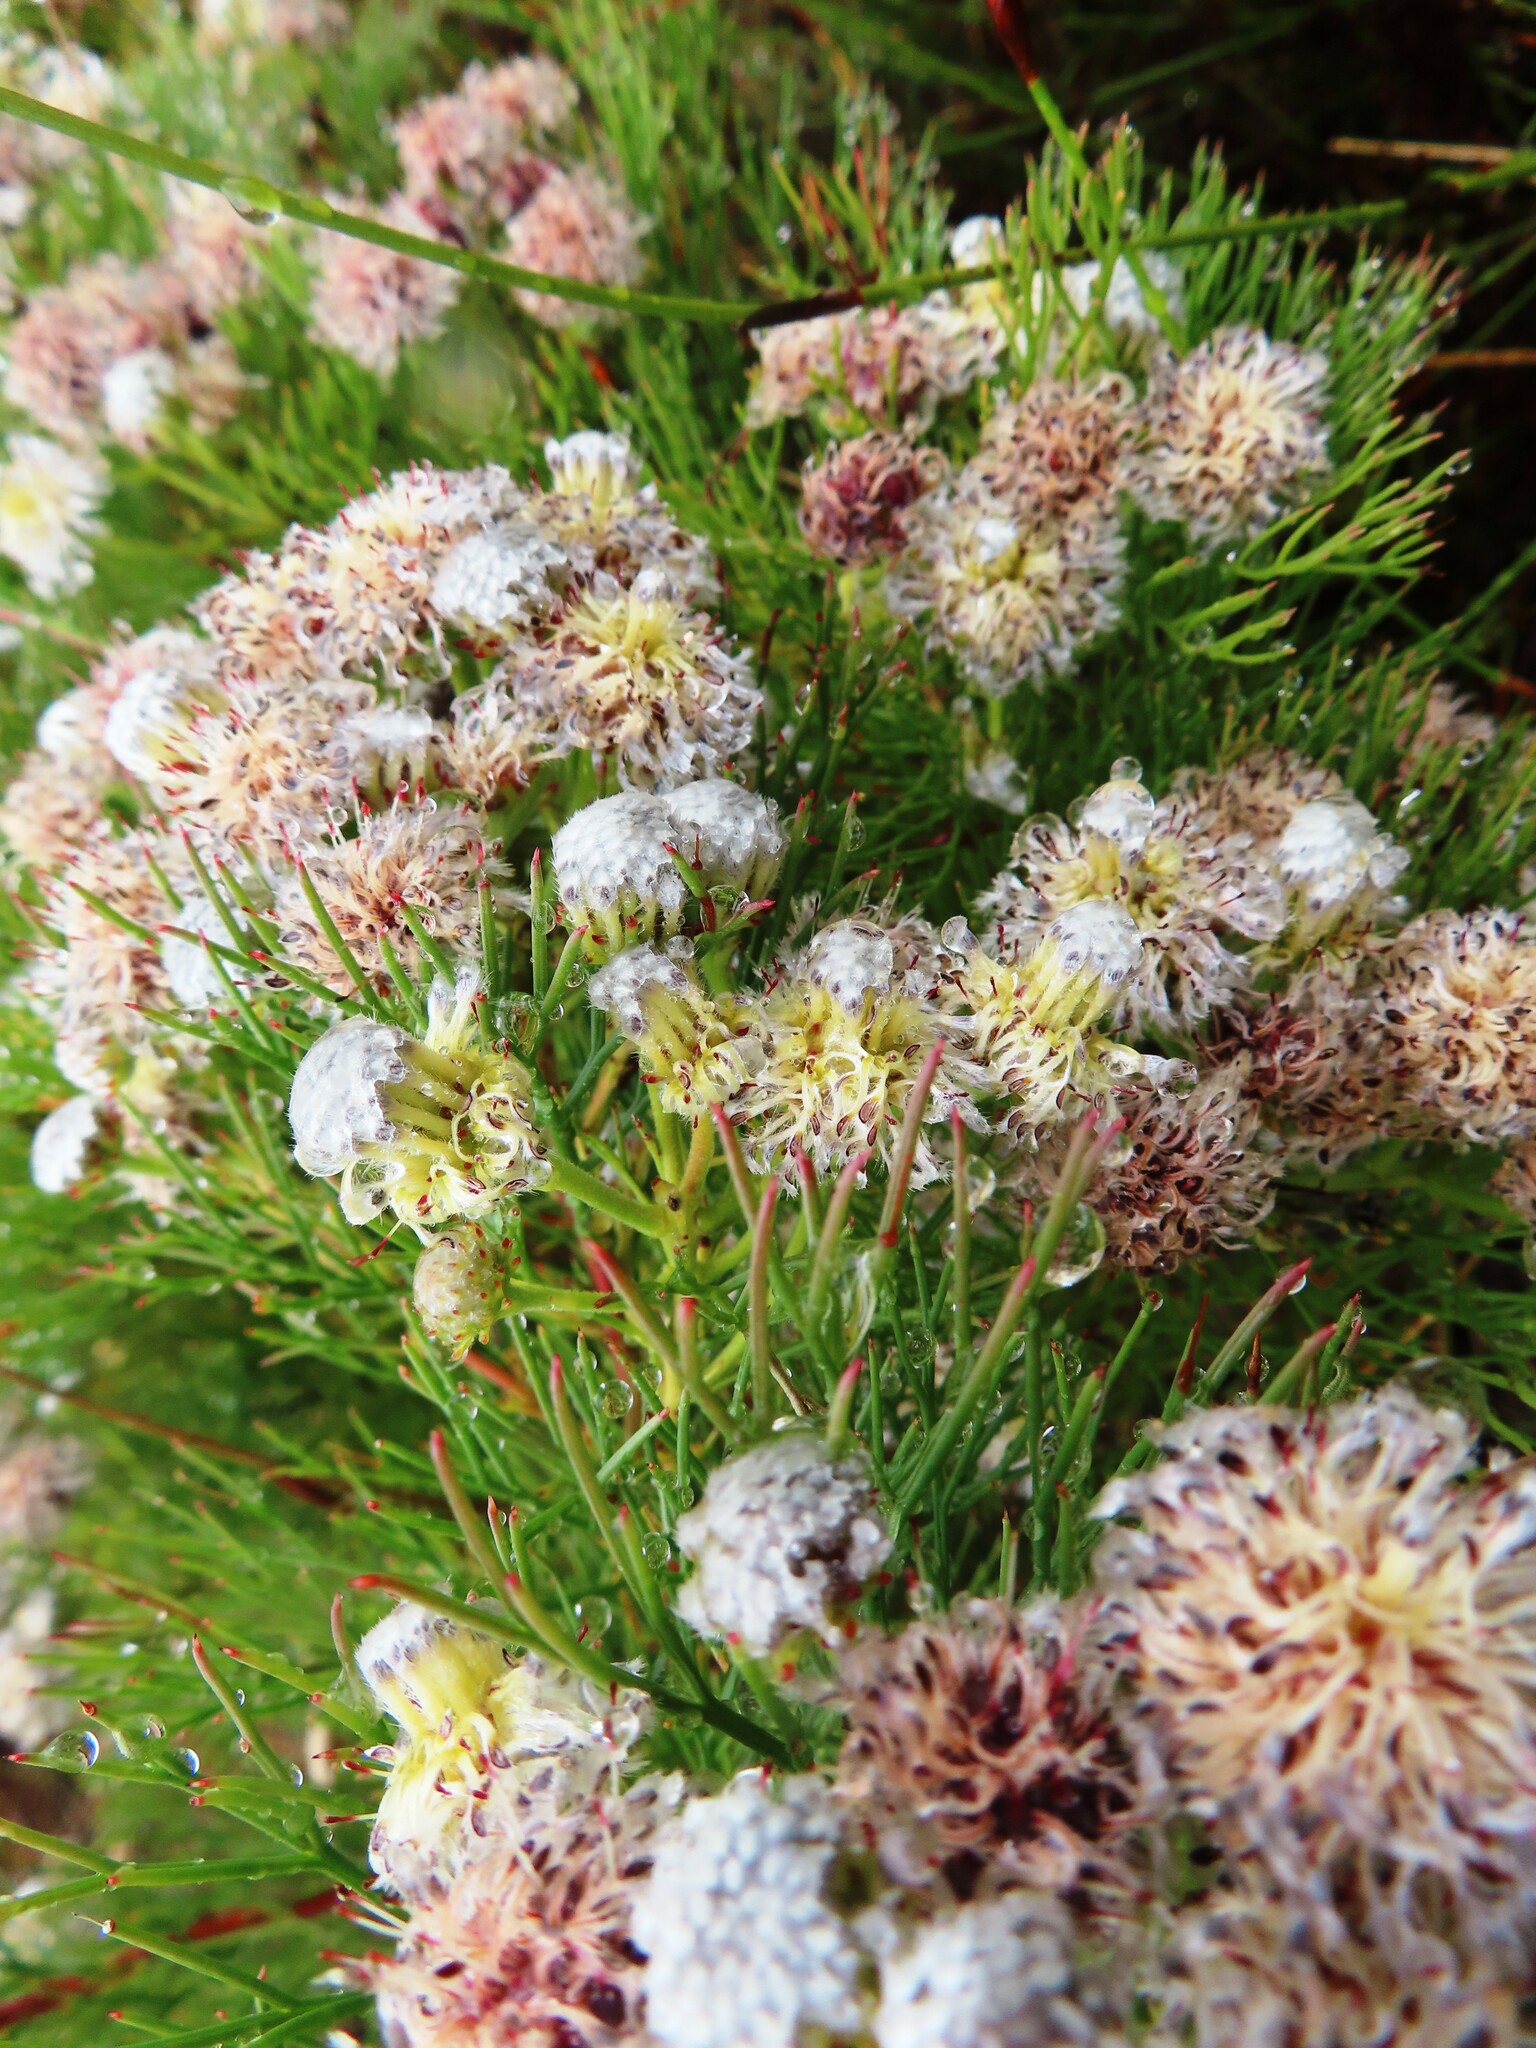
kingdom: Plantae
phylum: Tracheophyta
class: Magnoliopsida
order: Proteales
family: Proteaceae
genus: Serruria
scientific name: Serruria kraussii
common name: Snowball spiderhead
